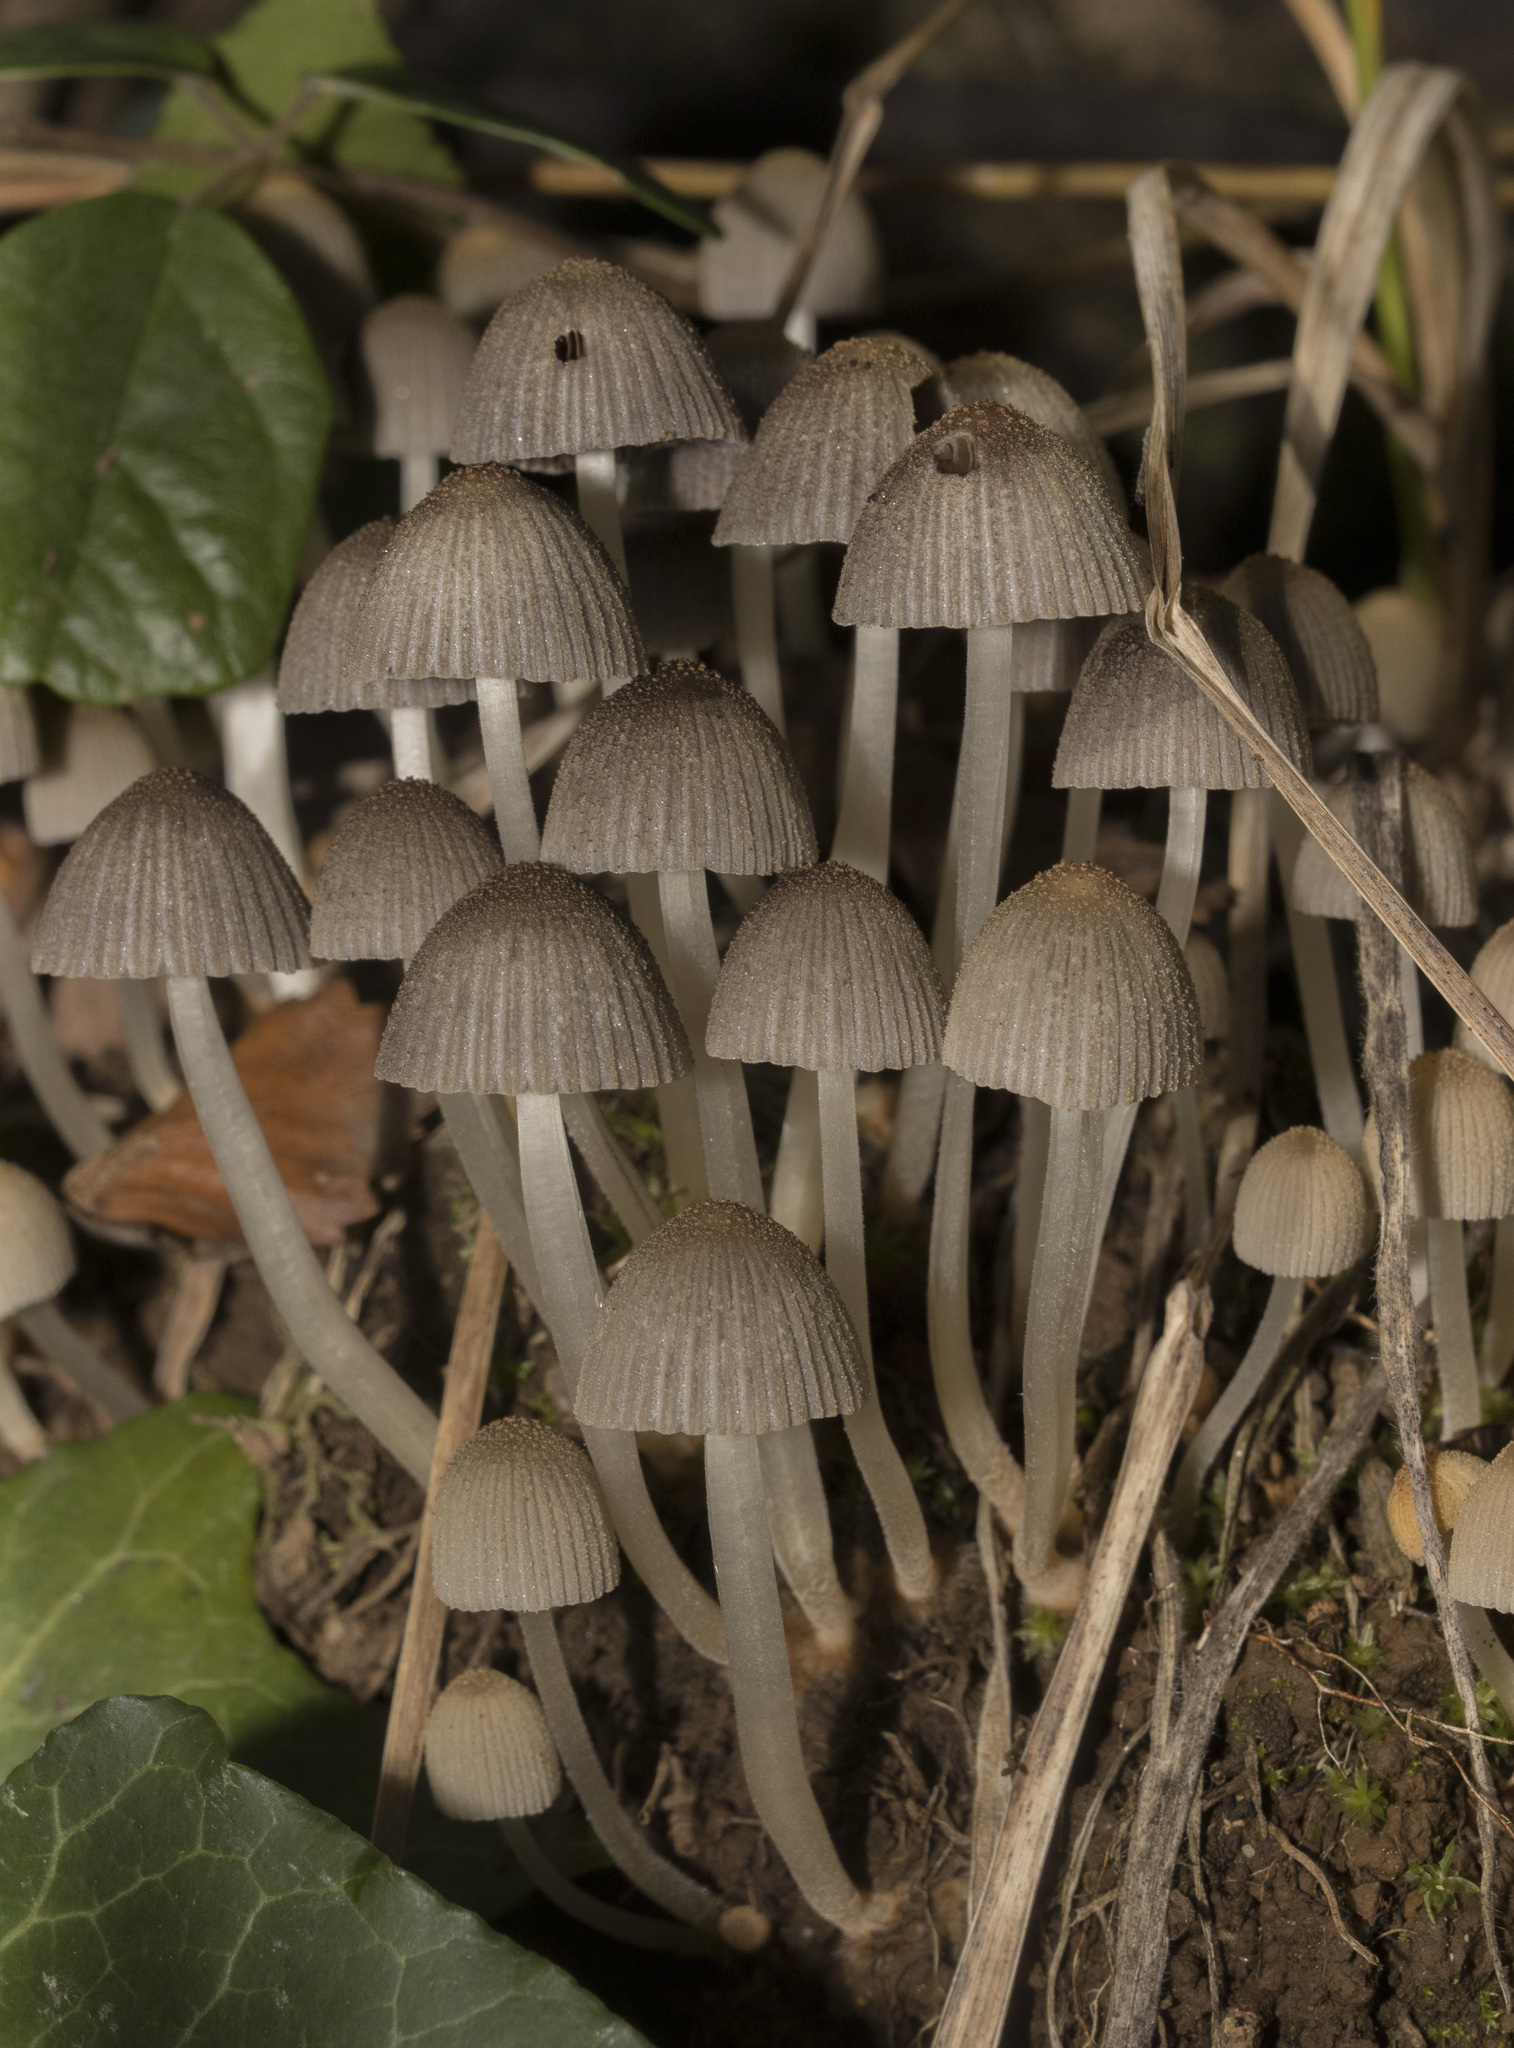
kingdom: Fungi
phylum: Basidiomycota
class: Agaricomycetes
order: Agaricales
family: Psathyrellaceae
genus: Coprinellus
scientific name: Coprinellus disseminatus
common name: Fairies' bonnets
